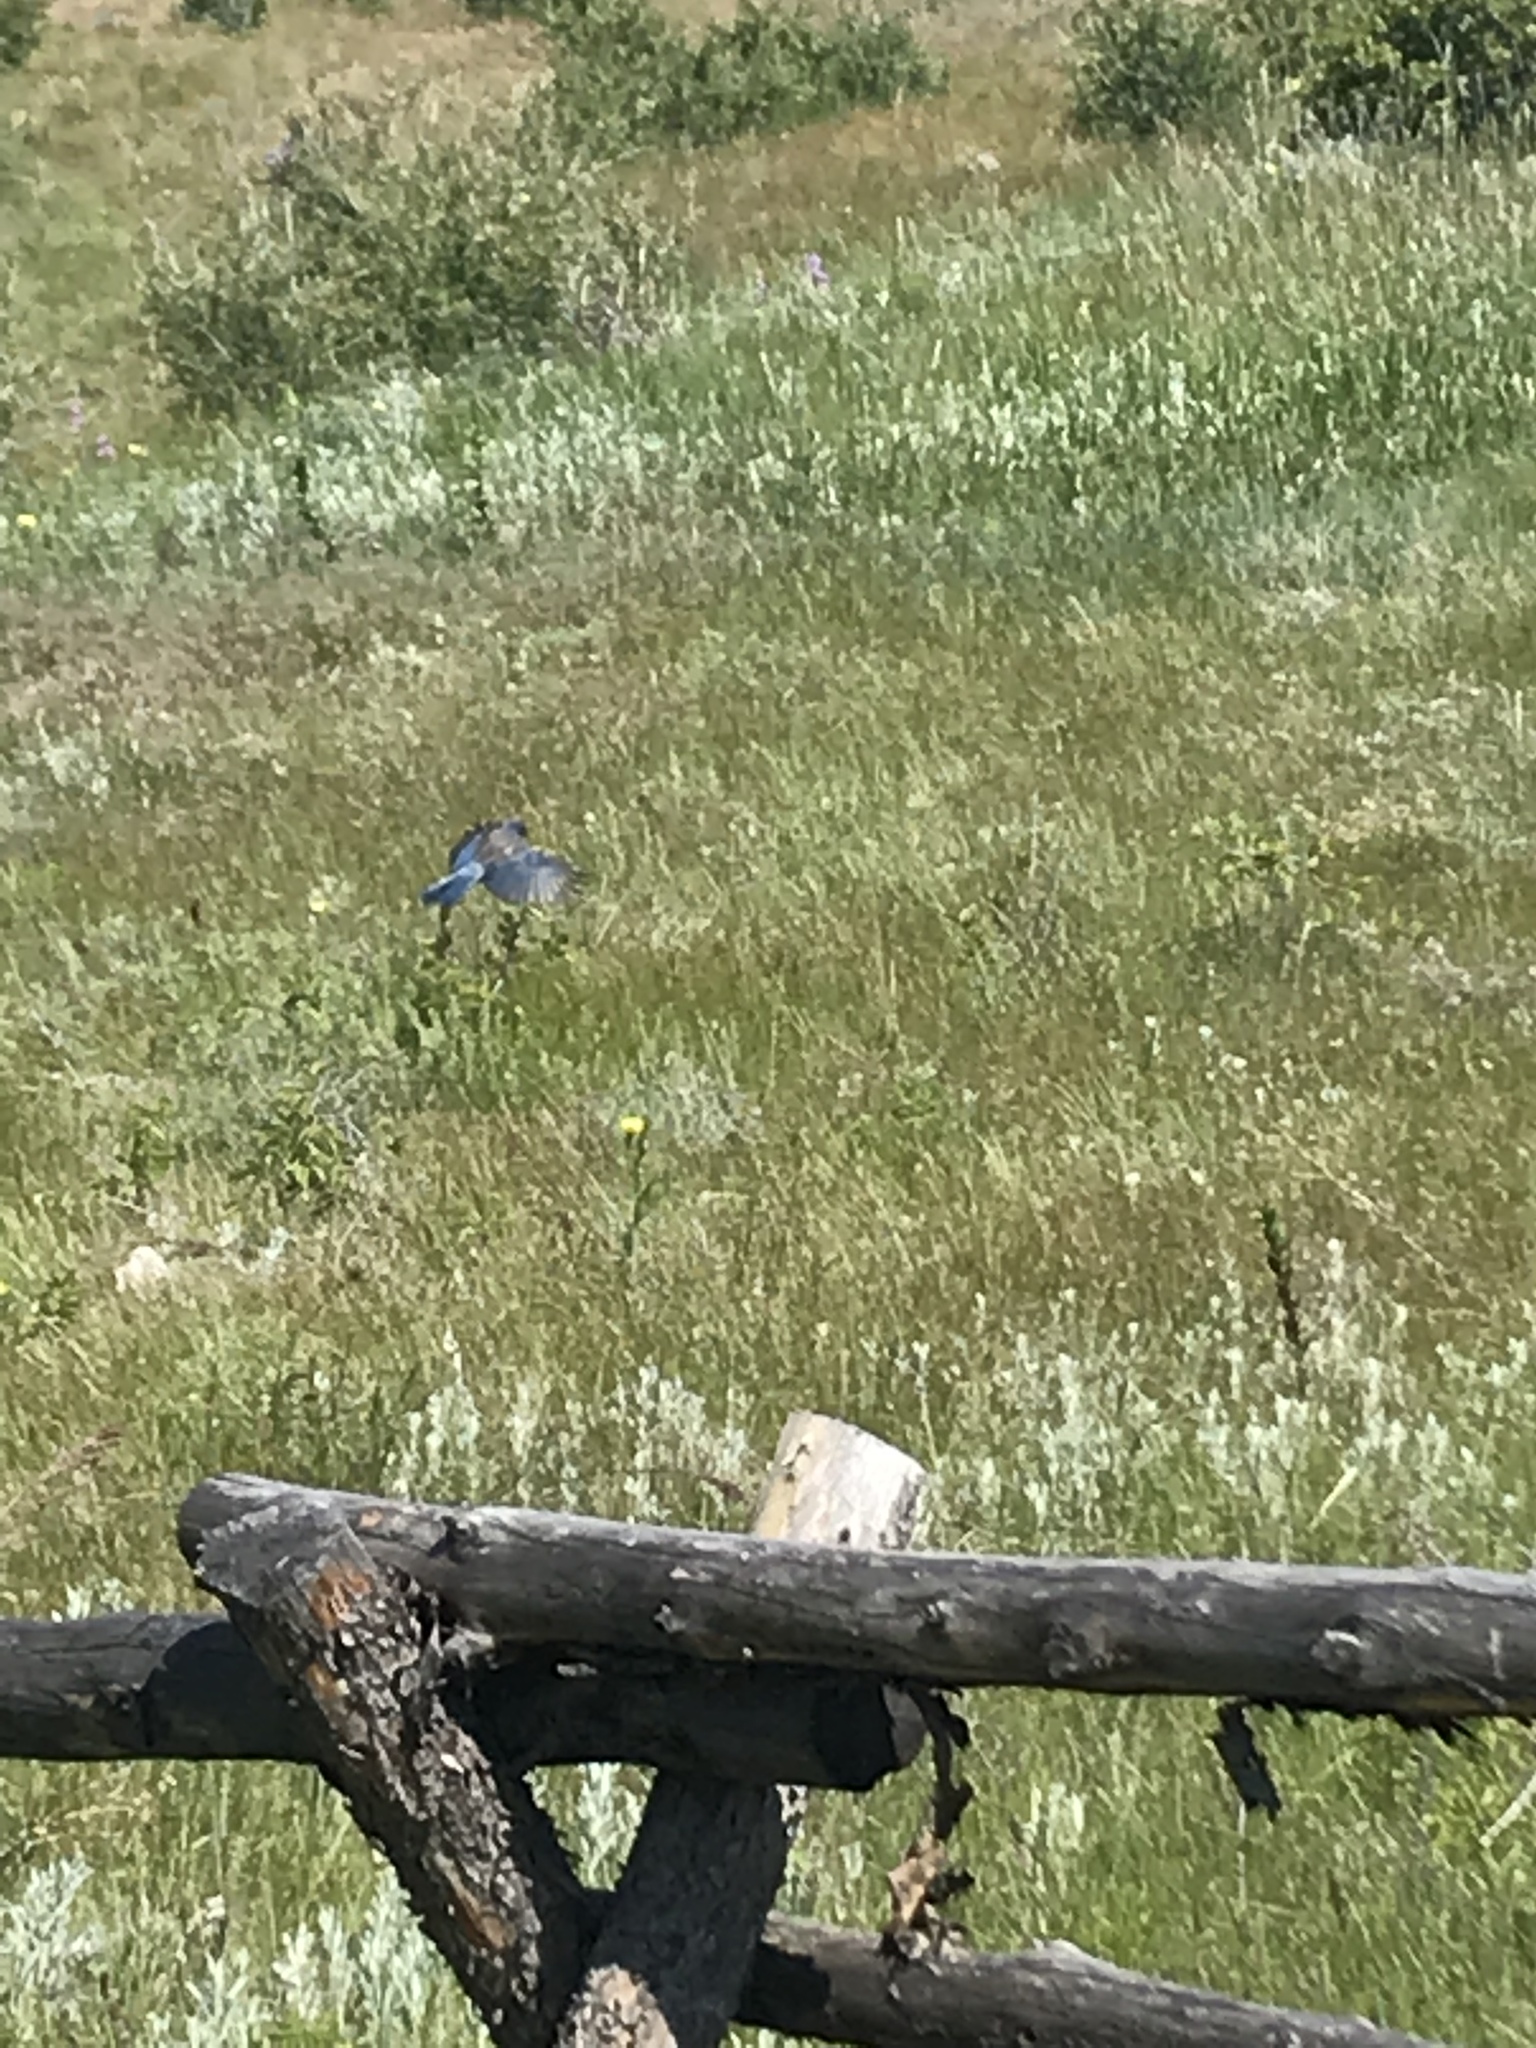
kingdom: Animalia
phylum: Chordata
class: Aves
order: Passeriformes
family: Corvidae
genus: Aphelocoma
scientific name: Aphelocoma woodhouseii
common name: Woodhouse's scrub-jay
